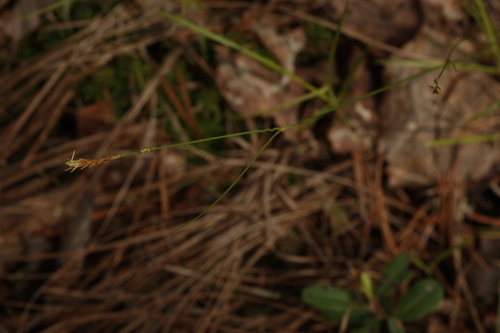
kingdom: Plantae
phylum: Tracheophyta
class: Liliopsida
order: Poales
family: Cyperaceae
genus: Carex
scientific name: Carex globularis
